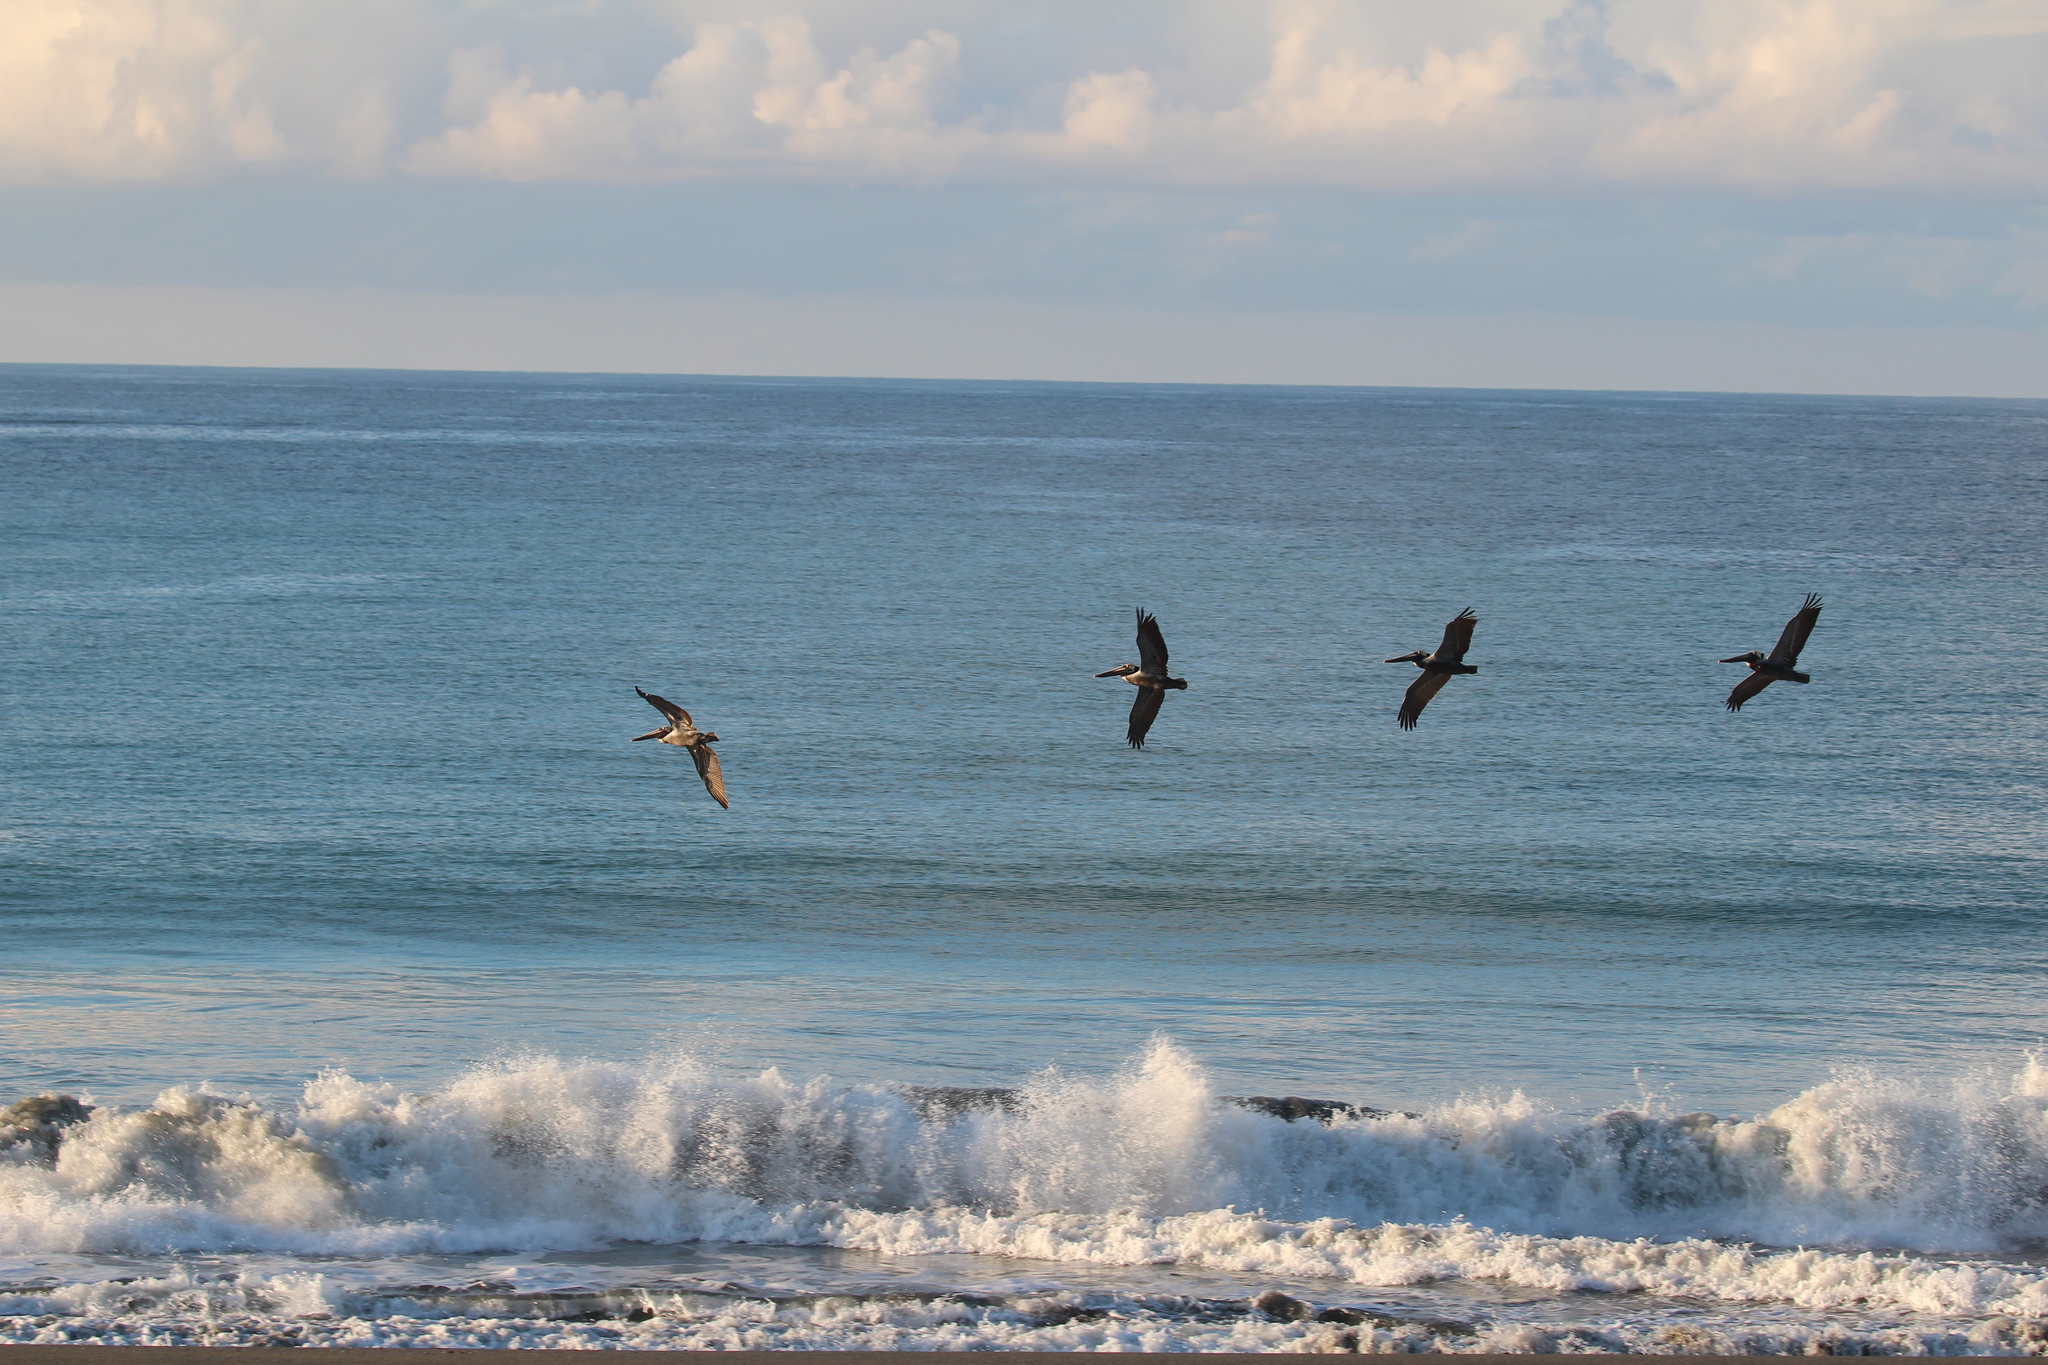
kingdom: Animalia
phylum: Chordata
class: Aves
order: Pelecaniformes
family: Pelecanidae
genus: Pelecanus
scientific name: Pelecanus occidentalis
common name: Brown pelican
